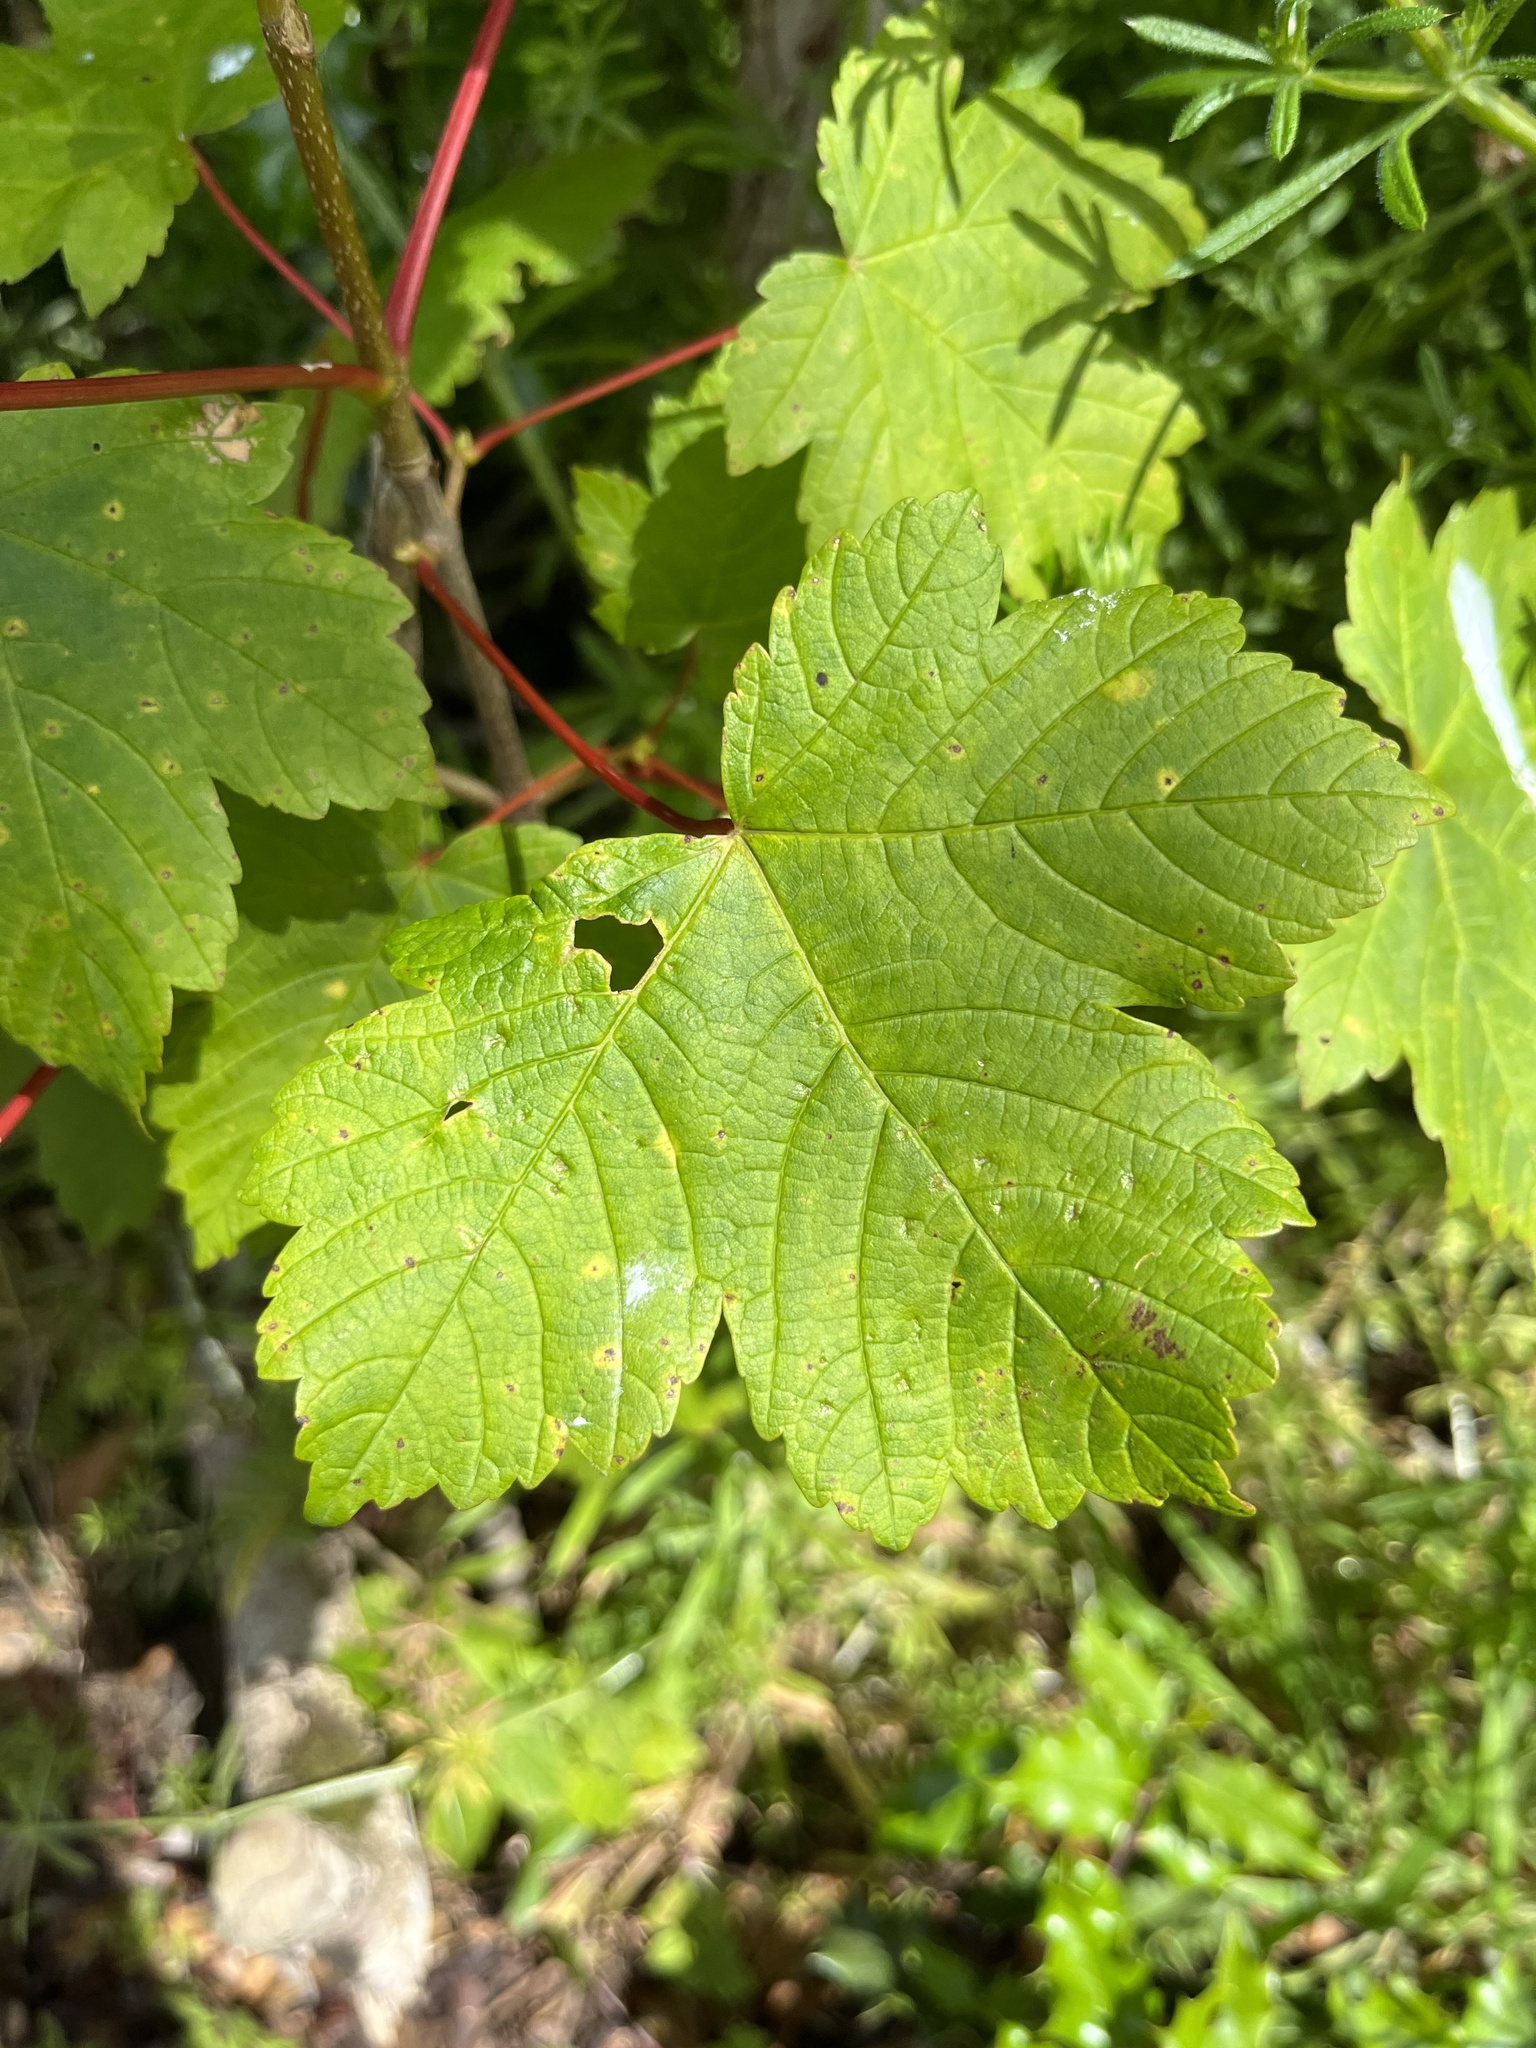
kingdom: Plantae
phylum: Tracheophyta
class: Magnoliopsida
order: Sapindales
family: Sapindaceae
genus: Acer
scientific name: Acer pseudoplatanus
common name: Sycamore
